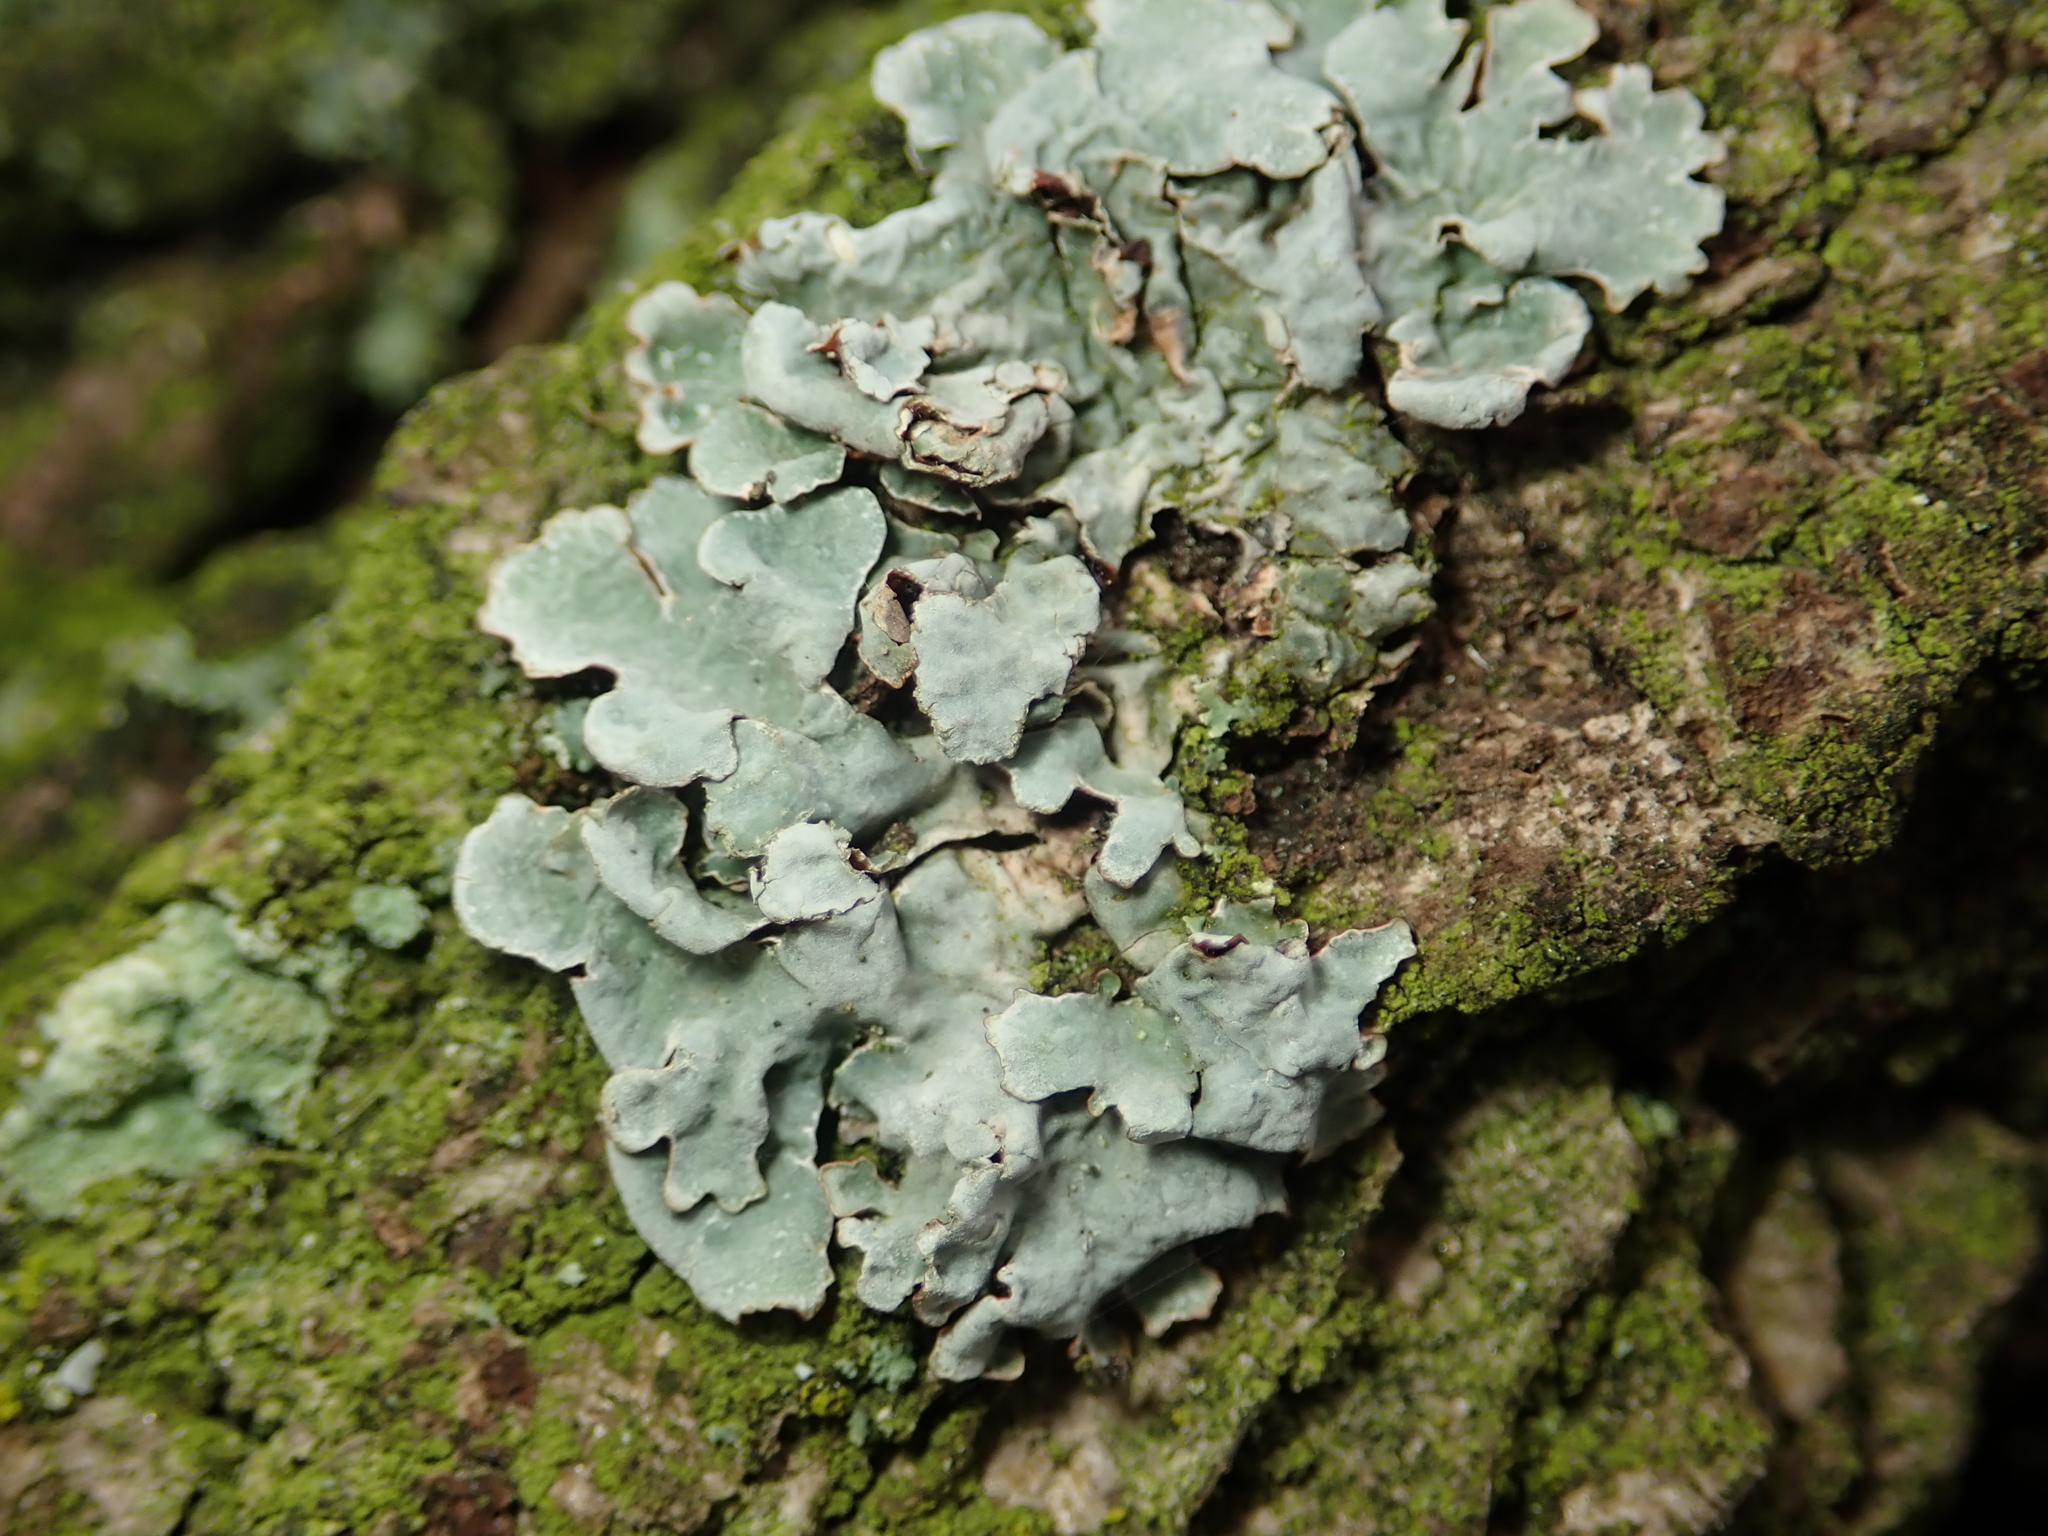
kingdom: Fungi
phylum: Ascomycota
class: Lecanoromycetes
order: Lecanorales
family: Parmeliaceae
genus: Parmelia
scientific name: Parmelia sulcata
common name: Netted shield lichen
